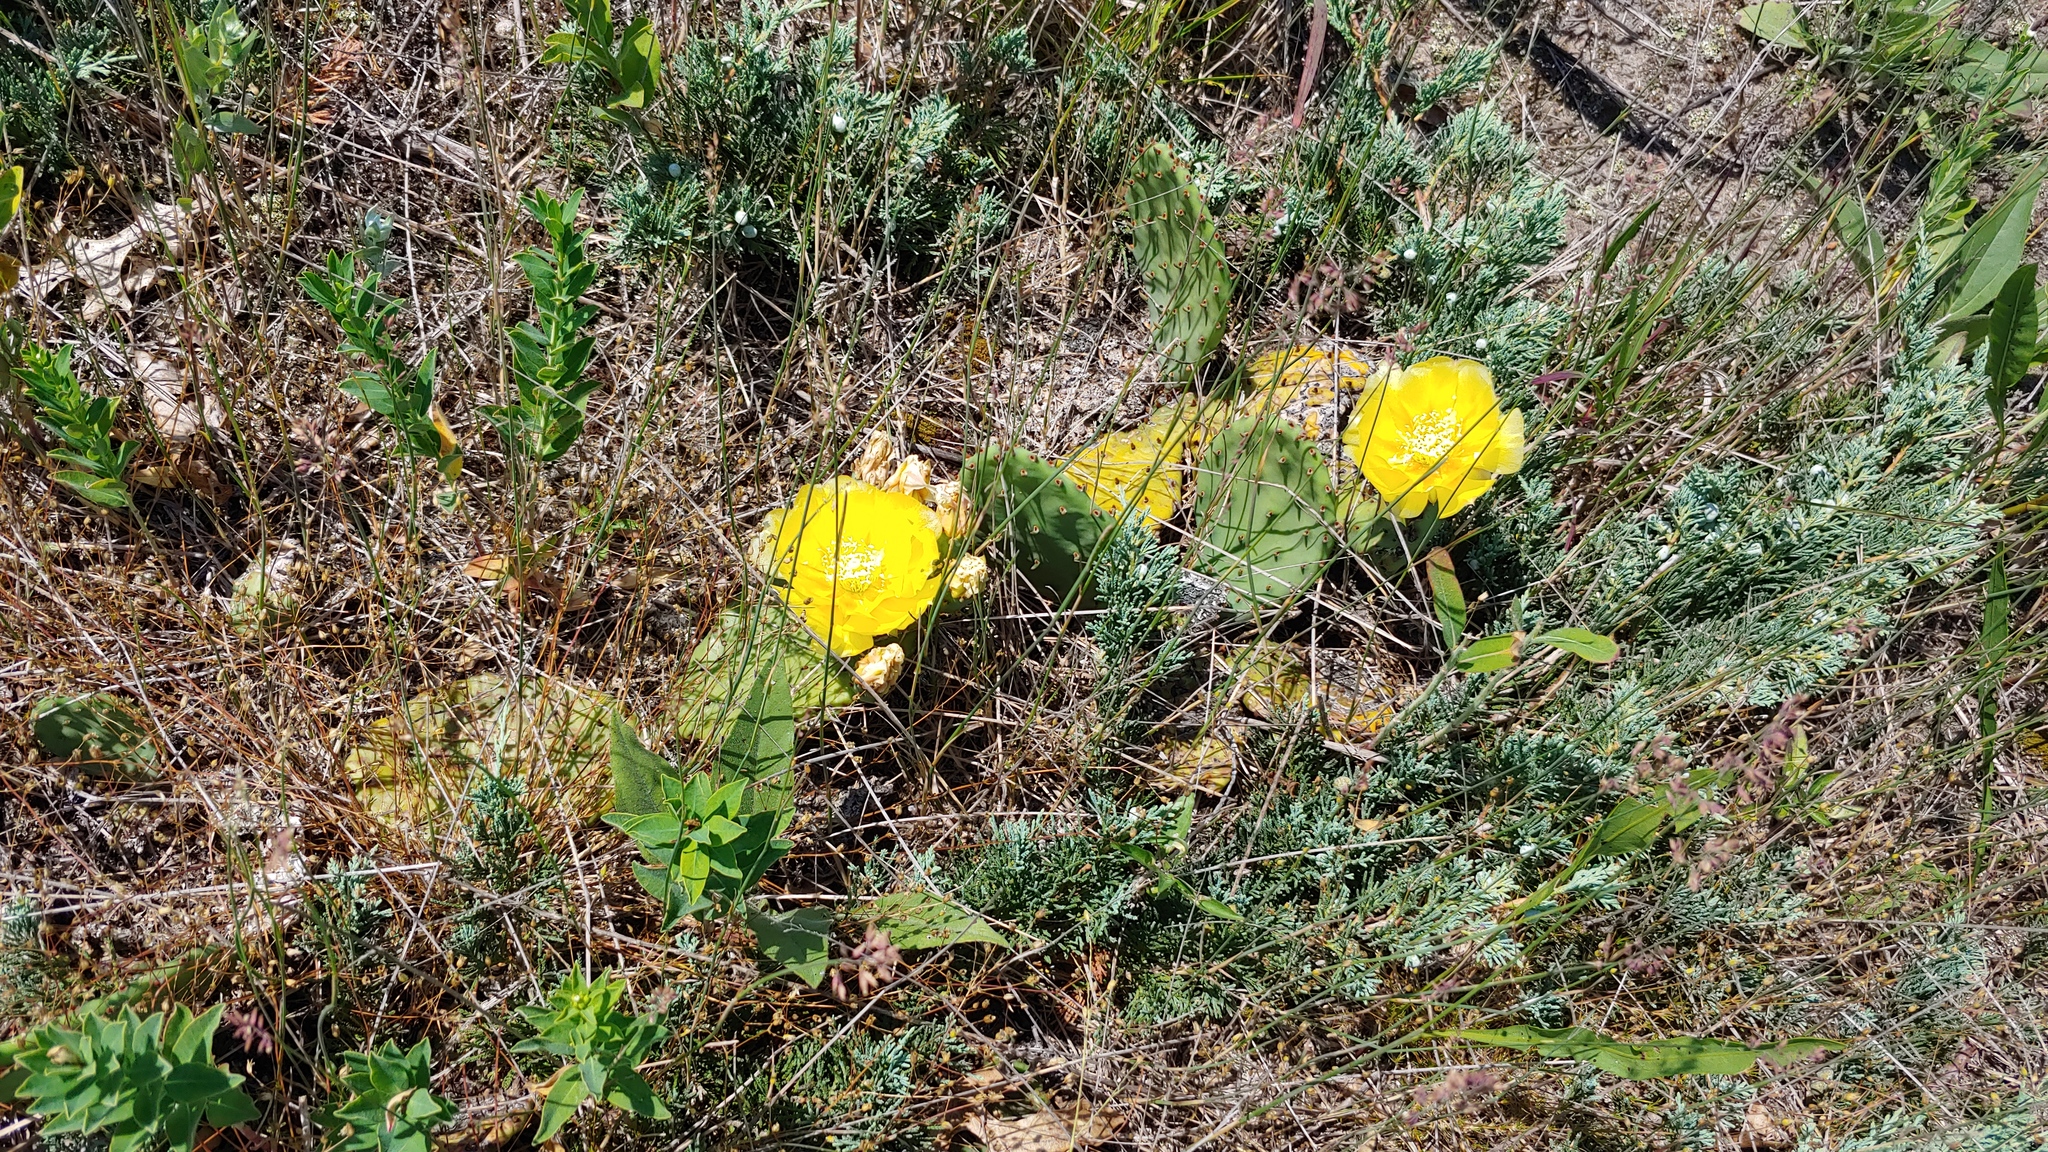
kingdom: Plantae
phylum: Tracheophyta
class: Pinopsida
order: Pinales
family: Cupressaceae
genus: Juniperus
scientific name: Juniperus horizontalis
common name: Creeping juniper
